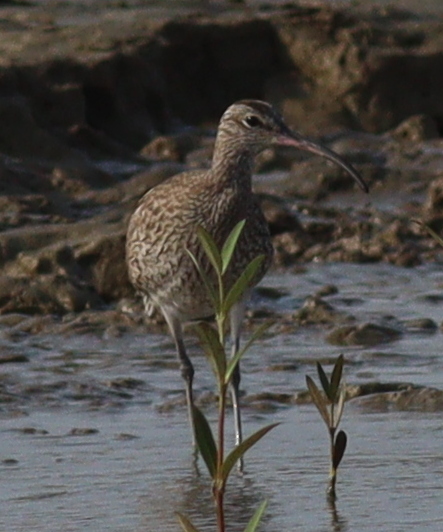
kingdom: Animalia
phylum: Chordata
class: Aves
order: Charadriiformes
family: Scolopacidae
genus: Numenius
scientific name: Numenius phaeopus
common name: Whimbrel
